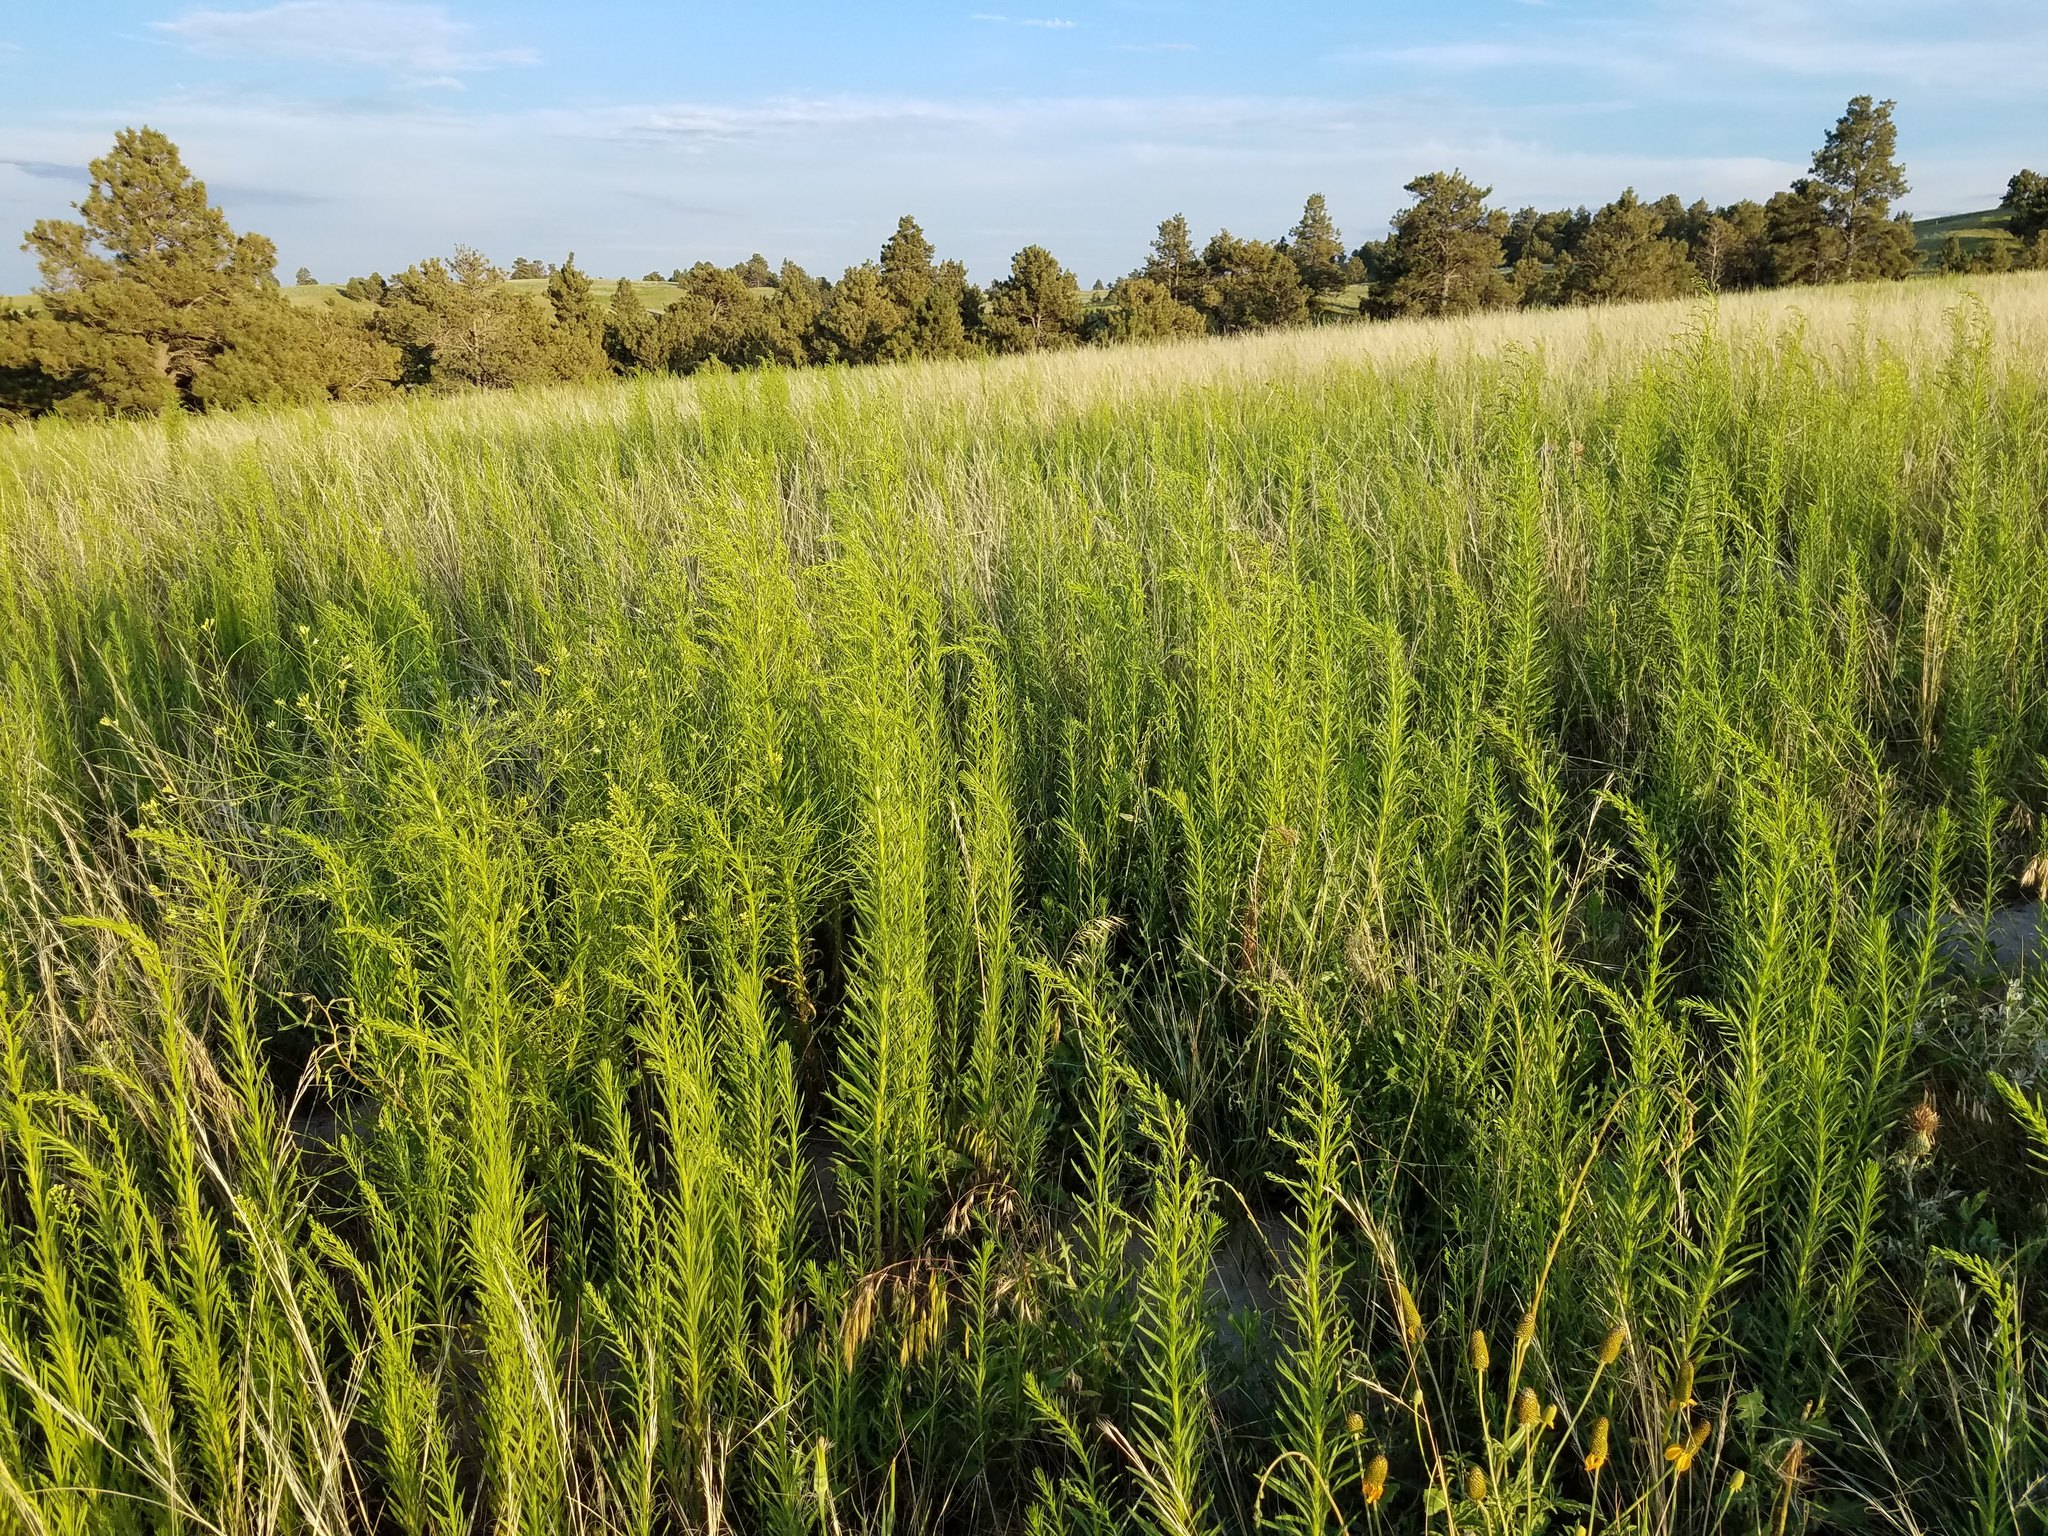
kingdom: Plantae
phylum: Tracheophyta
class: Magnoliopsida
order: Asterales
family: Asteraceae
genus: Erigeron
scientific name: Erigeron canadensis
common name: Canadian fleabane
